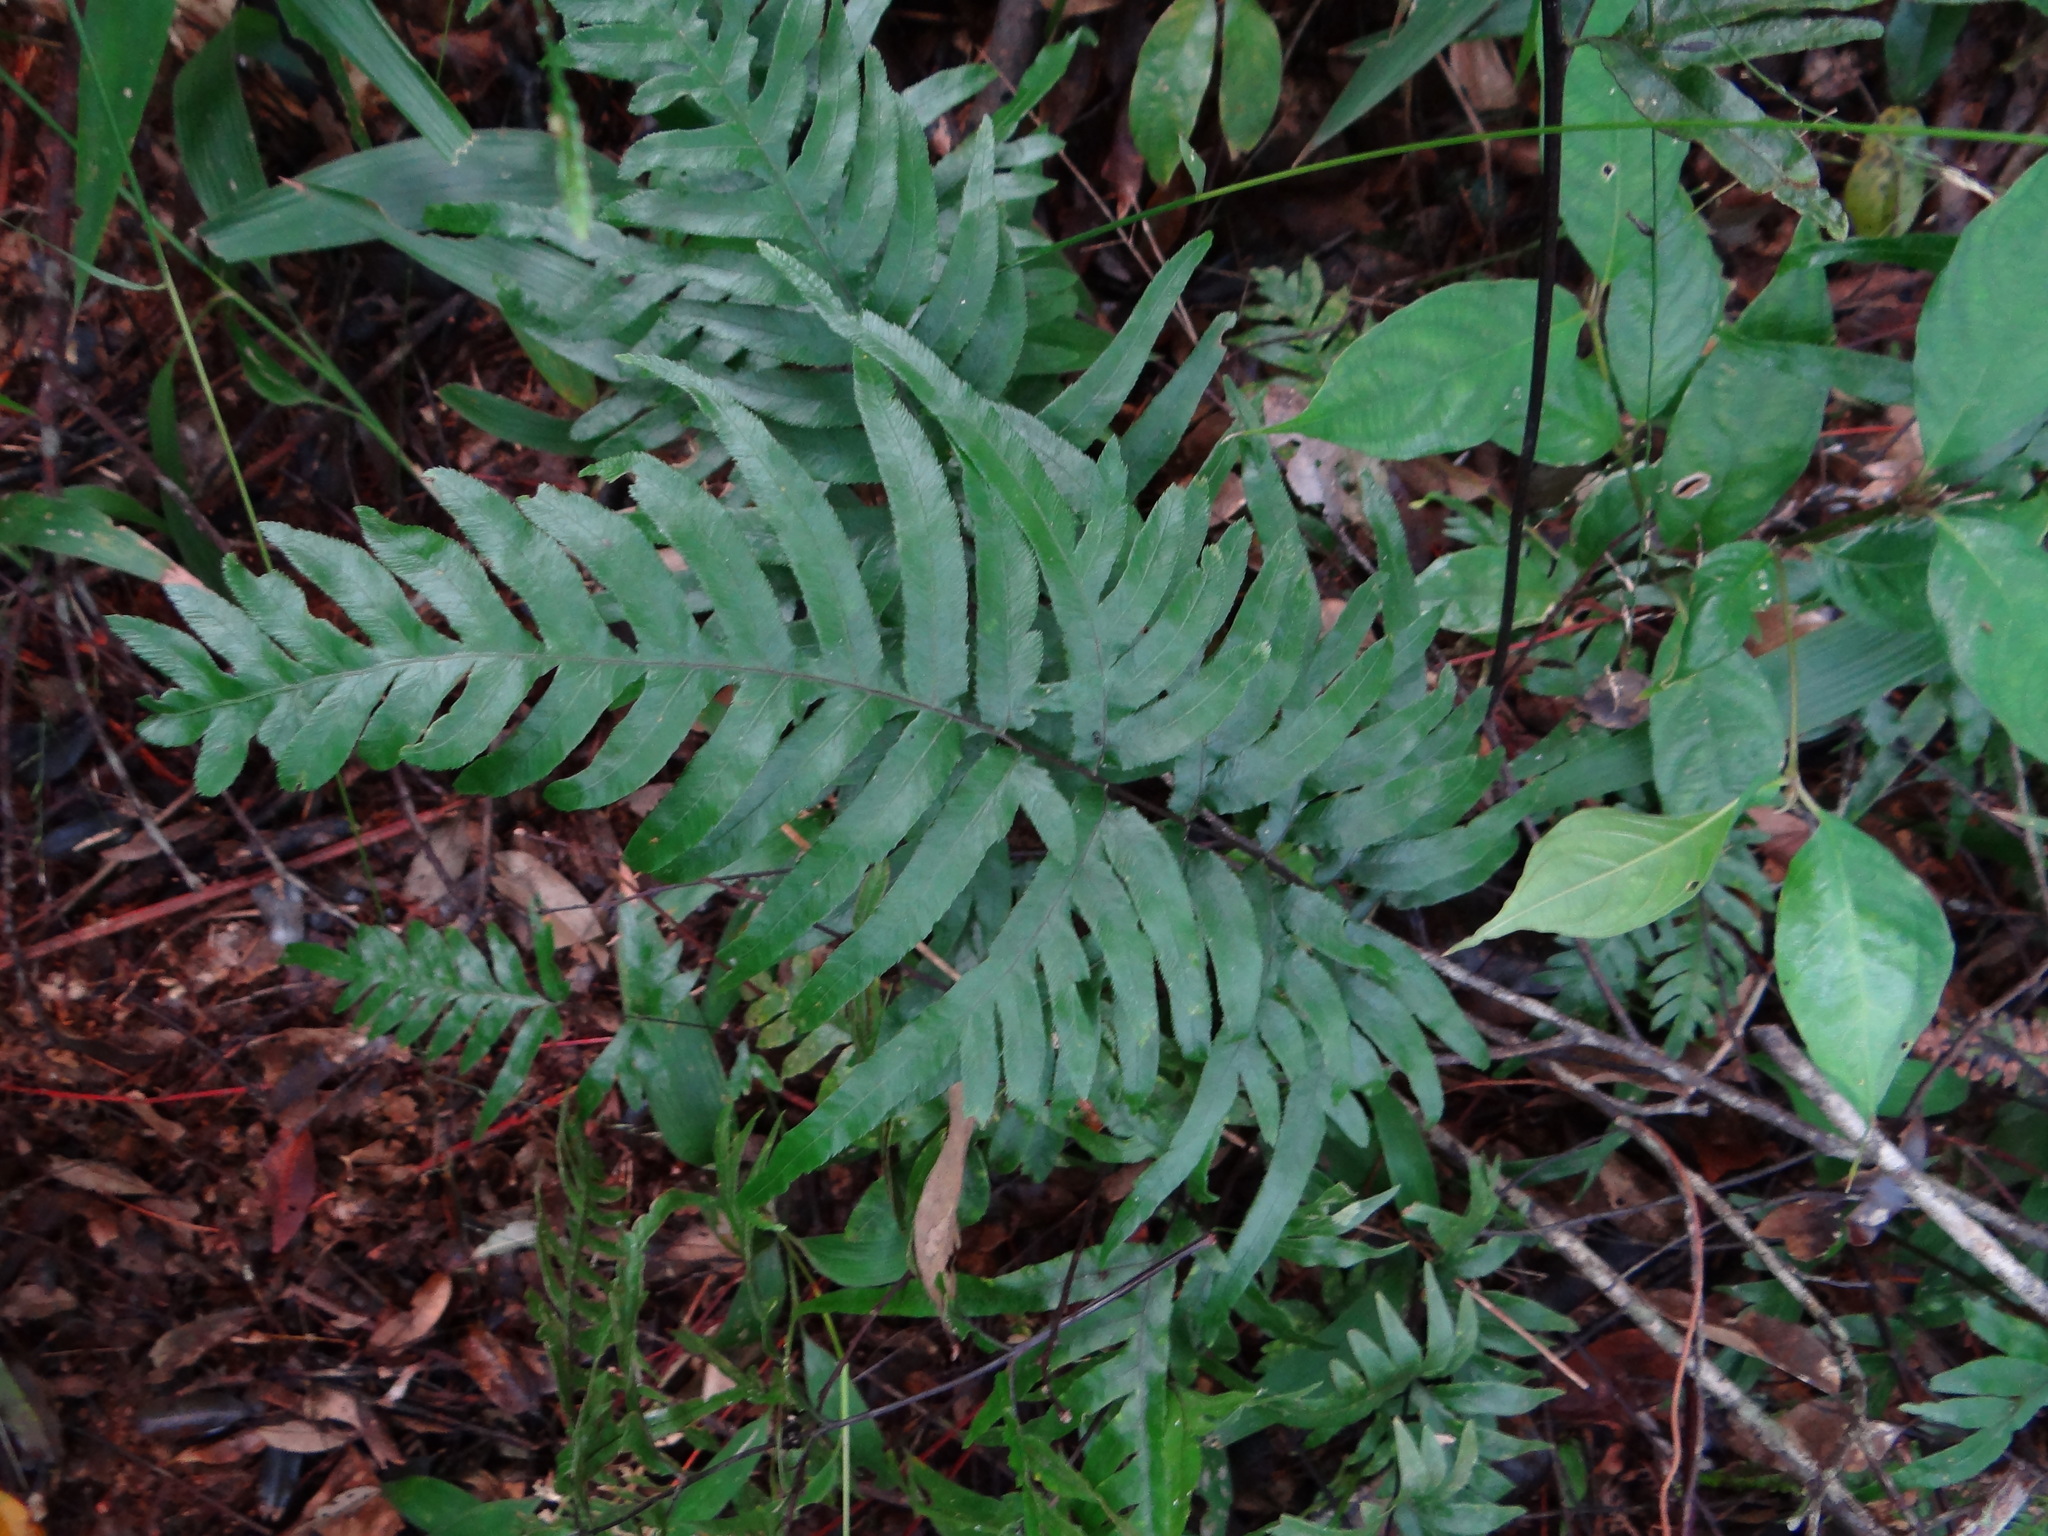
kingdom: Plantae
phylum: Tracheophyta
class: Polypodiopsida
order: Polypodiales
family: Pteridaceae
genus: Pteris
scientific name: Pteris semipinnata
